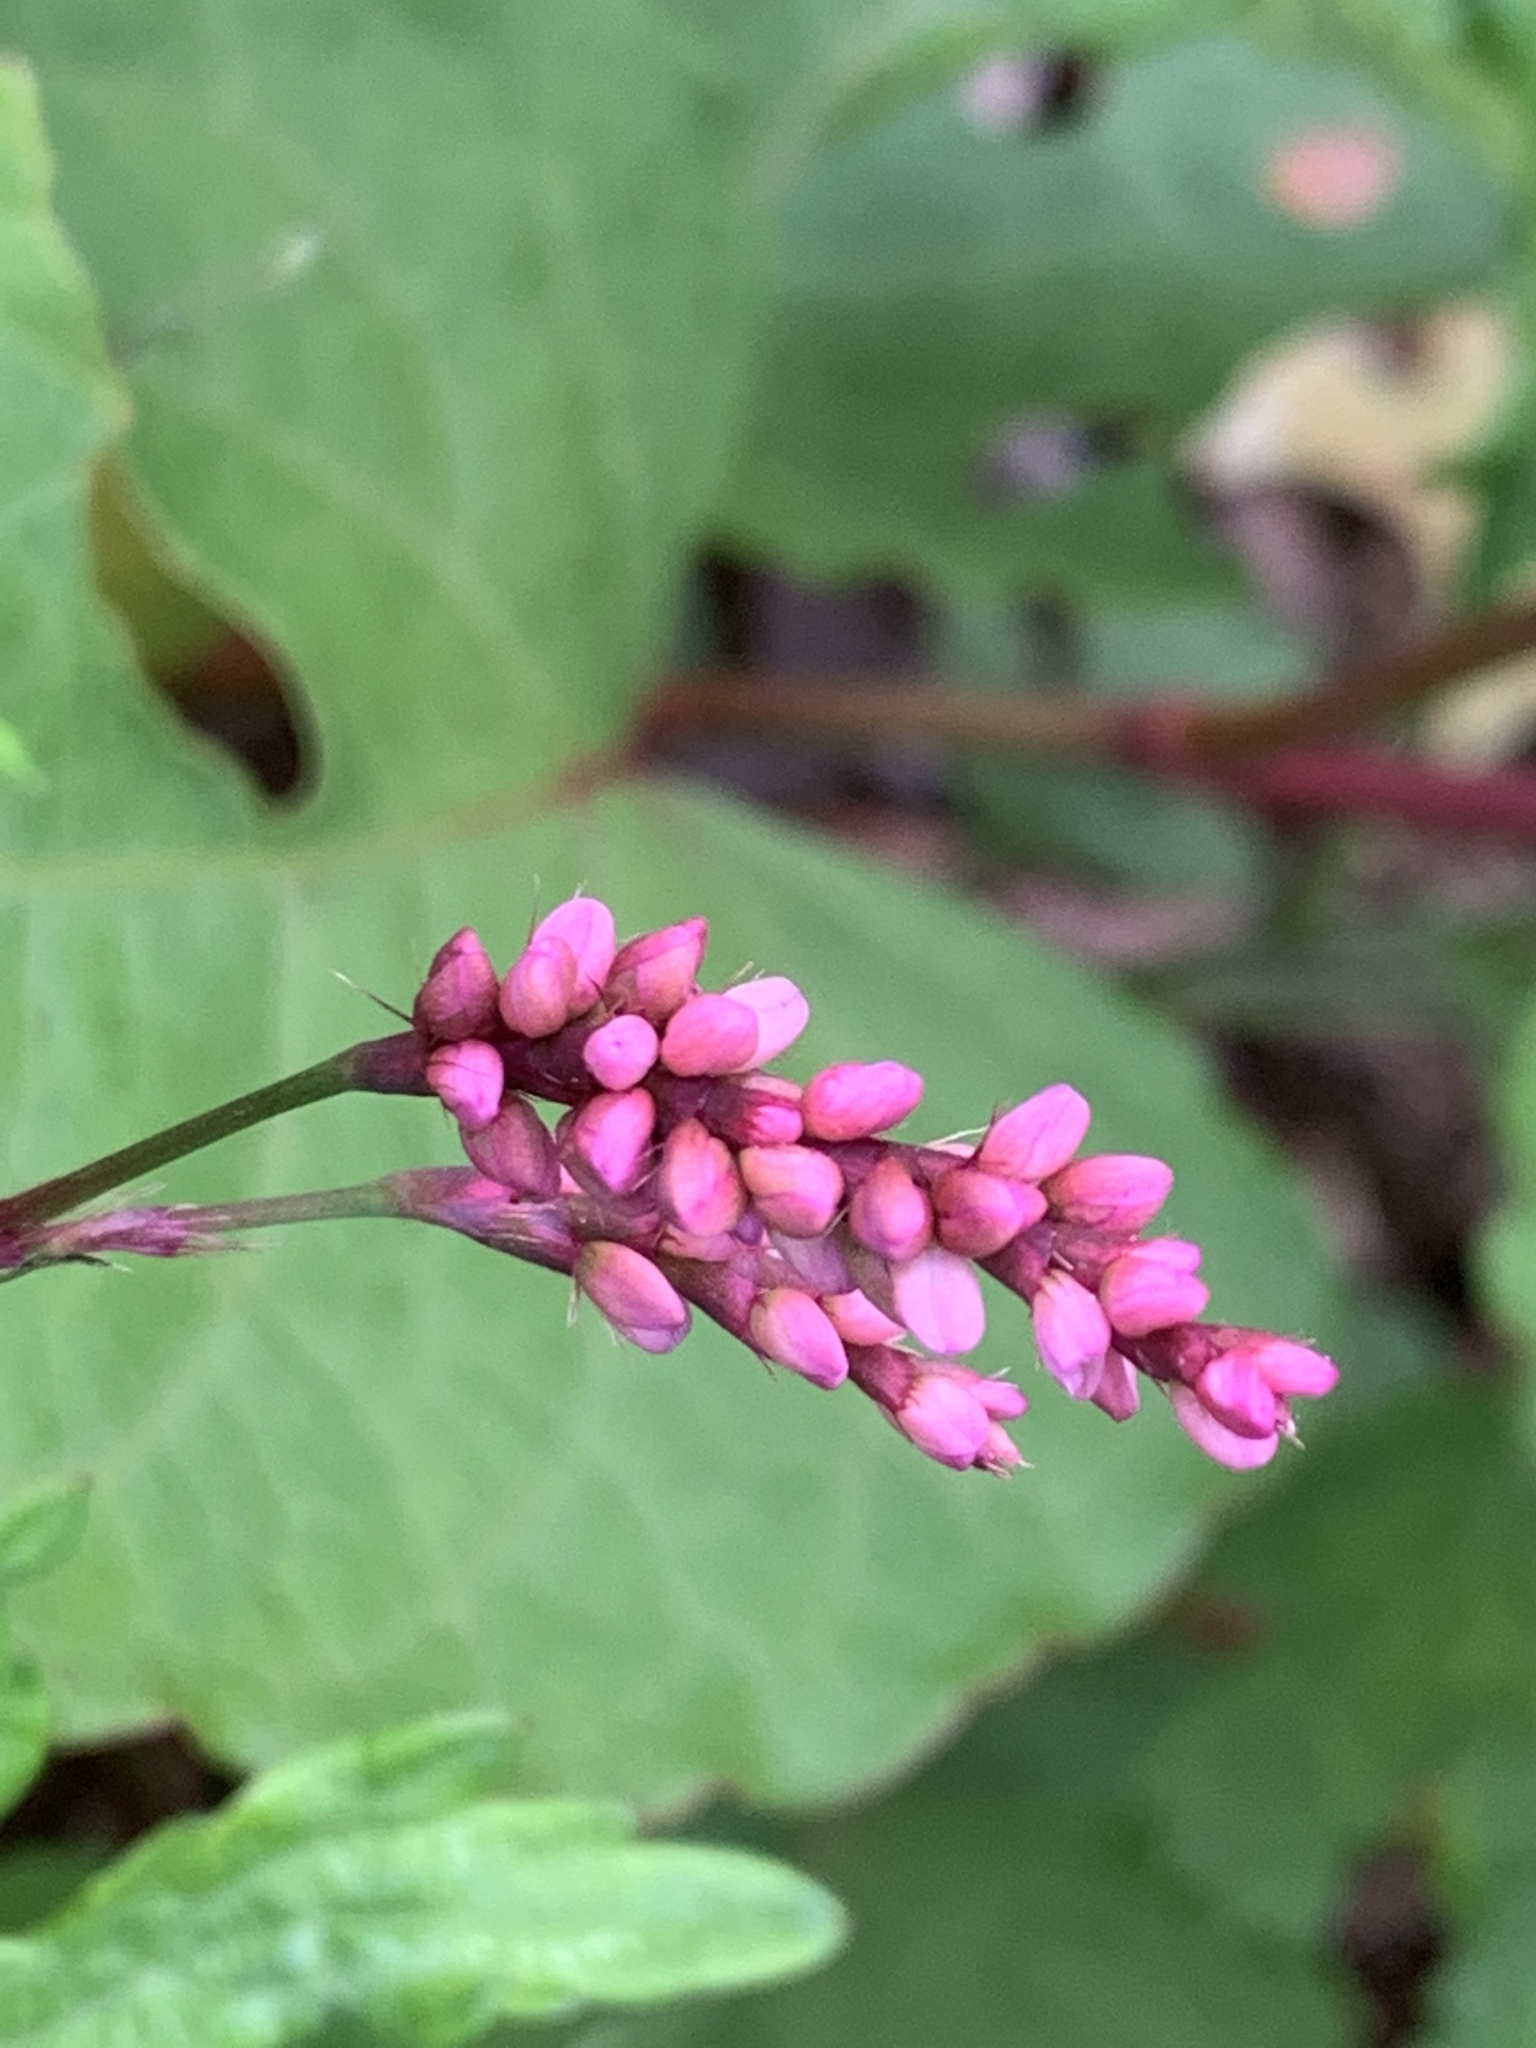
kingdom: Plantae
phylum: Tracheophyta
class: Magnoliopsida
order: Caryophyllales
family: Polygonaceae
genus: Persicaria
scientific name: Persicaria longiseta
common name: Bristly lady's-thumb
